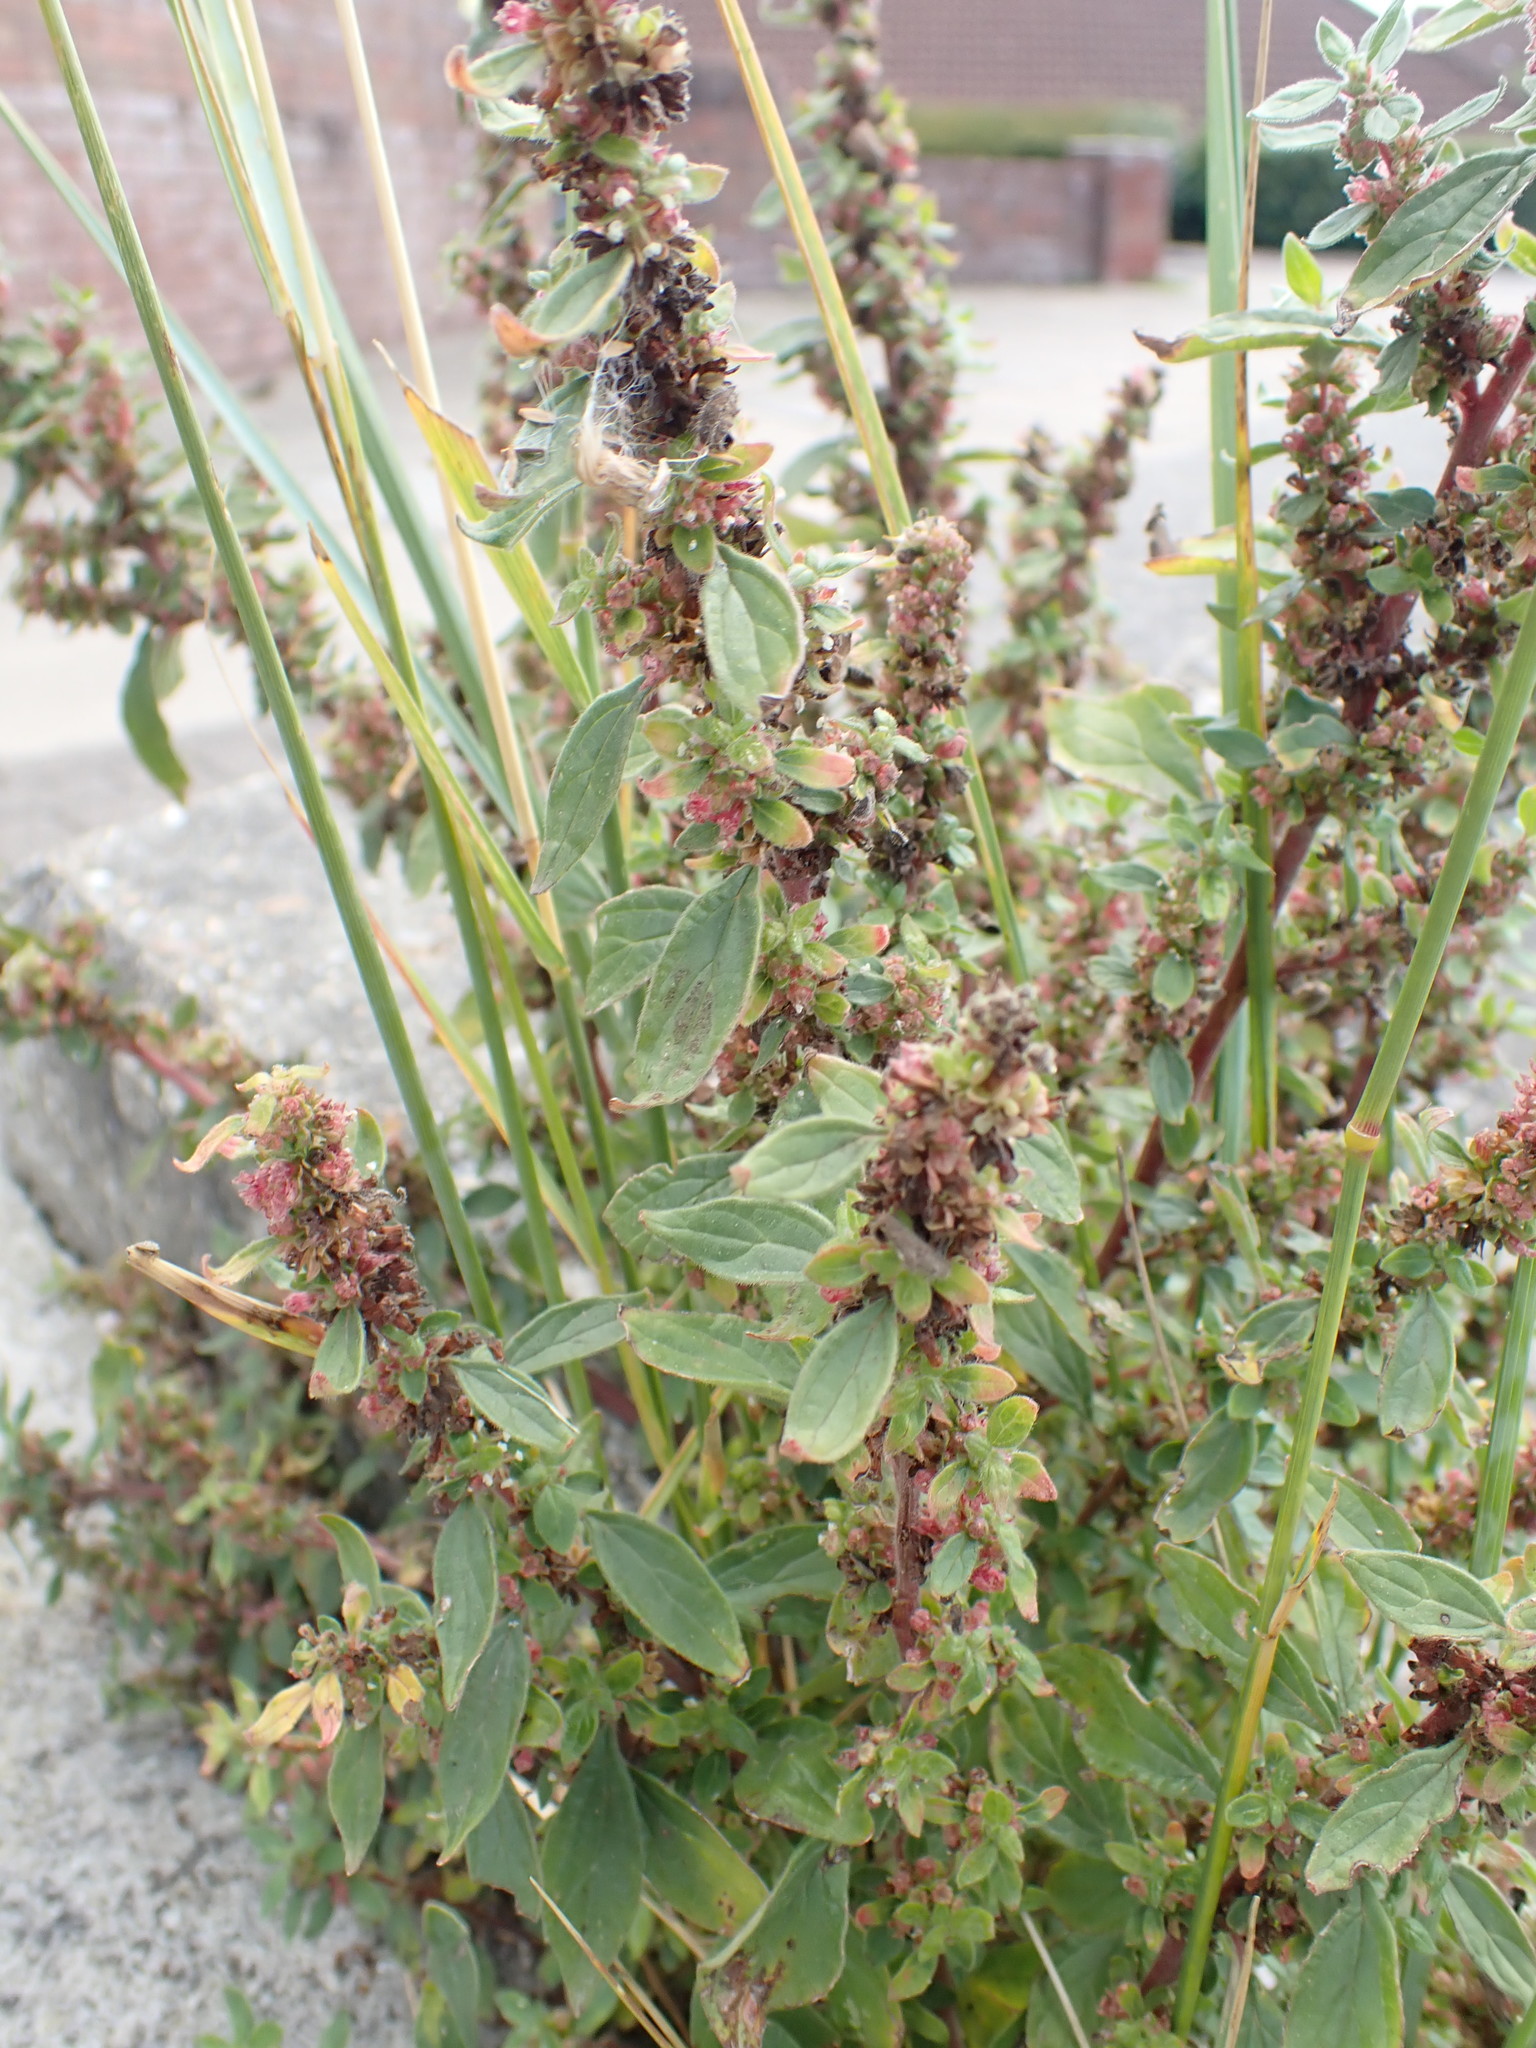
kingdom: Plantae
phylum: Tracheophyta
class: Magnoliopsida
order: Rosales
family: Urticaceae
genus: Parietaria
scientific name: Parietaria judaica
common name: Pellitory-of-the-wall
